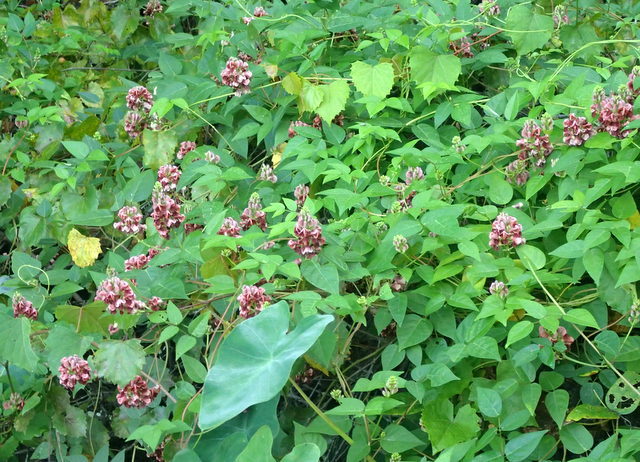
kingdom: Plantae
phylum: Tracheophyta
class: Magnoliopsida
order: Fabales
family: Fabaceae
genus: Apios
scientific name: Apios americana
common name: American potato-bean
